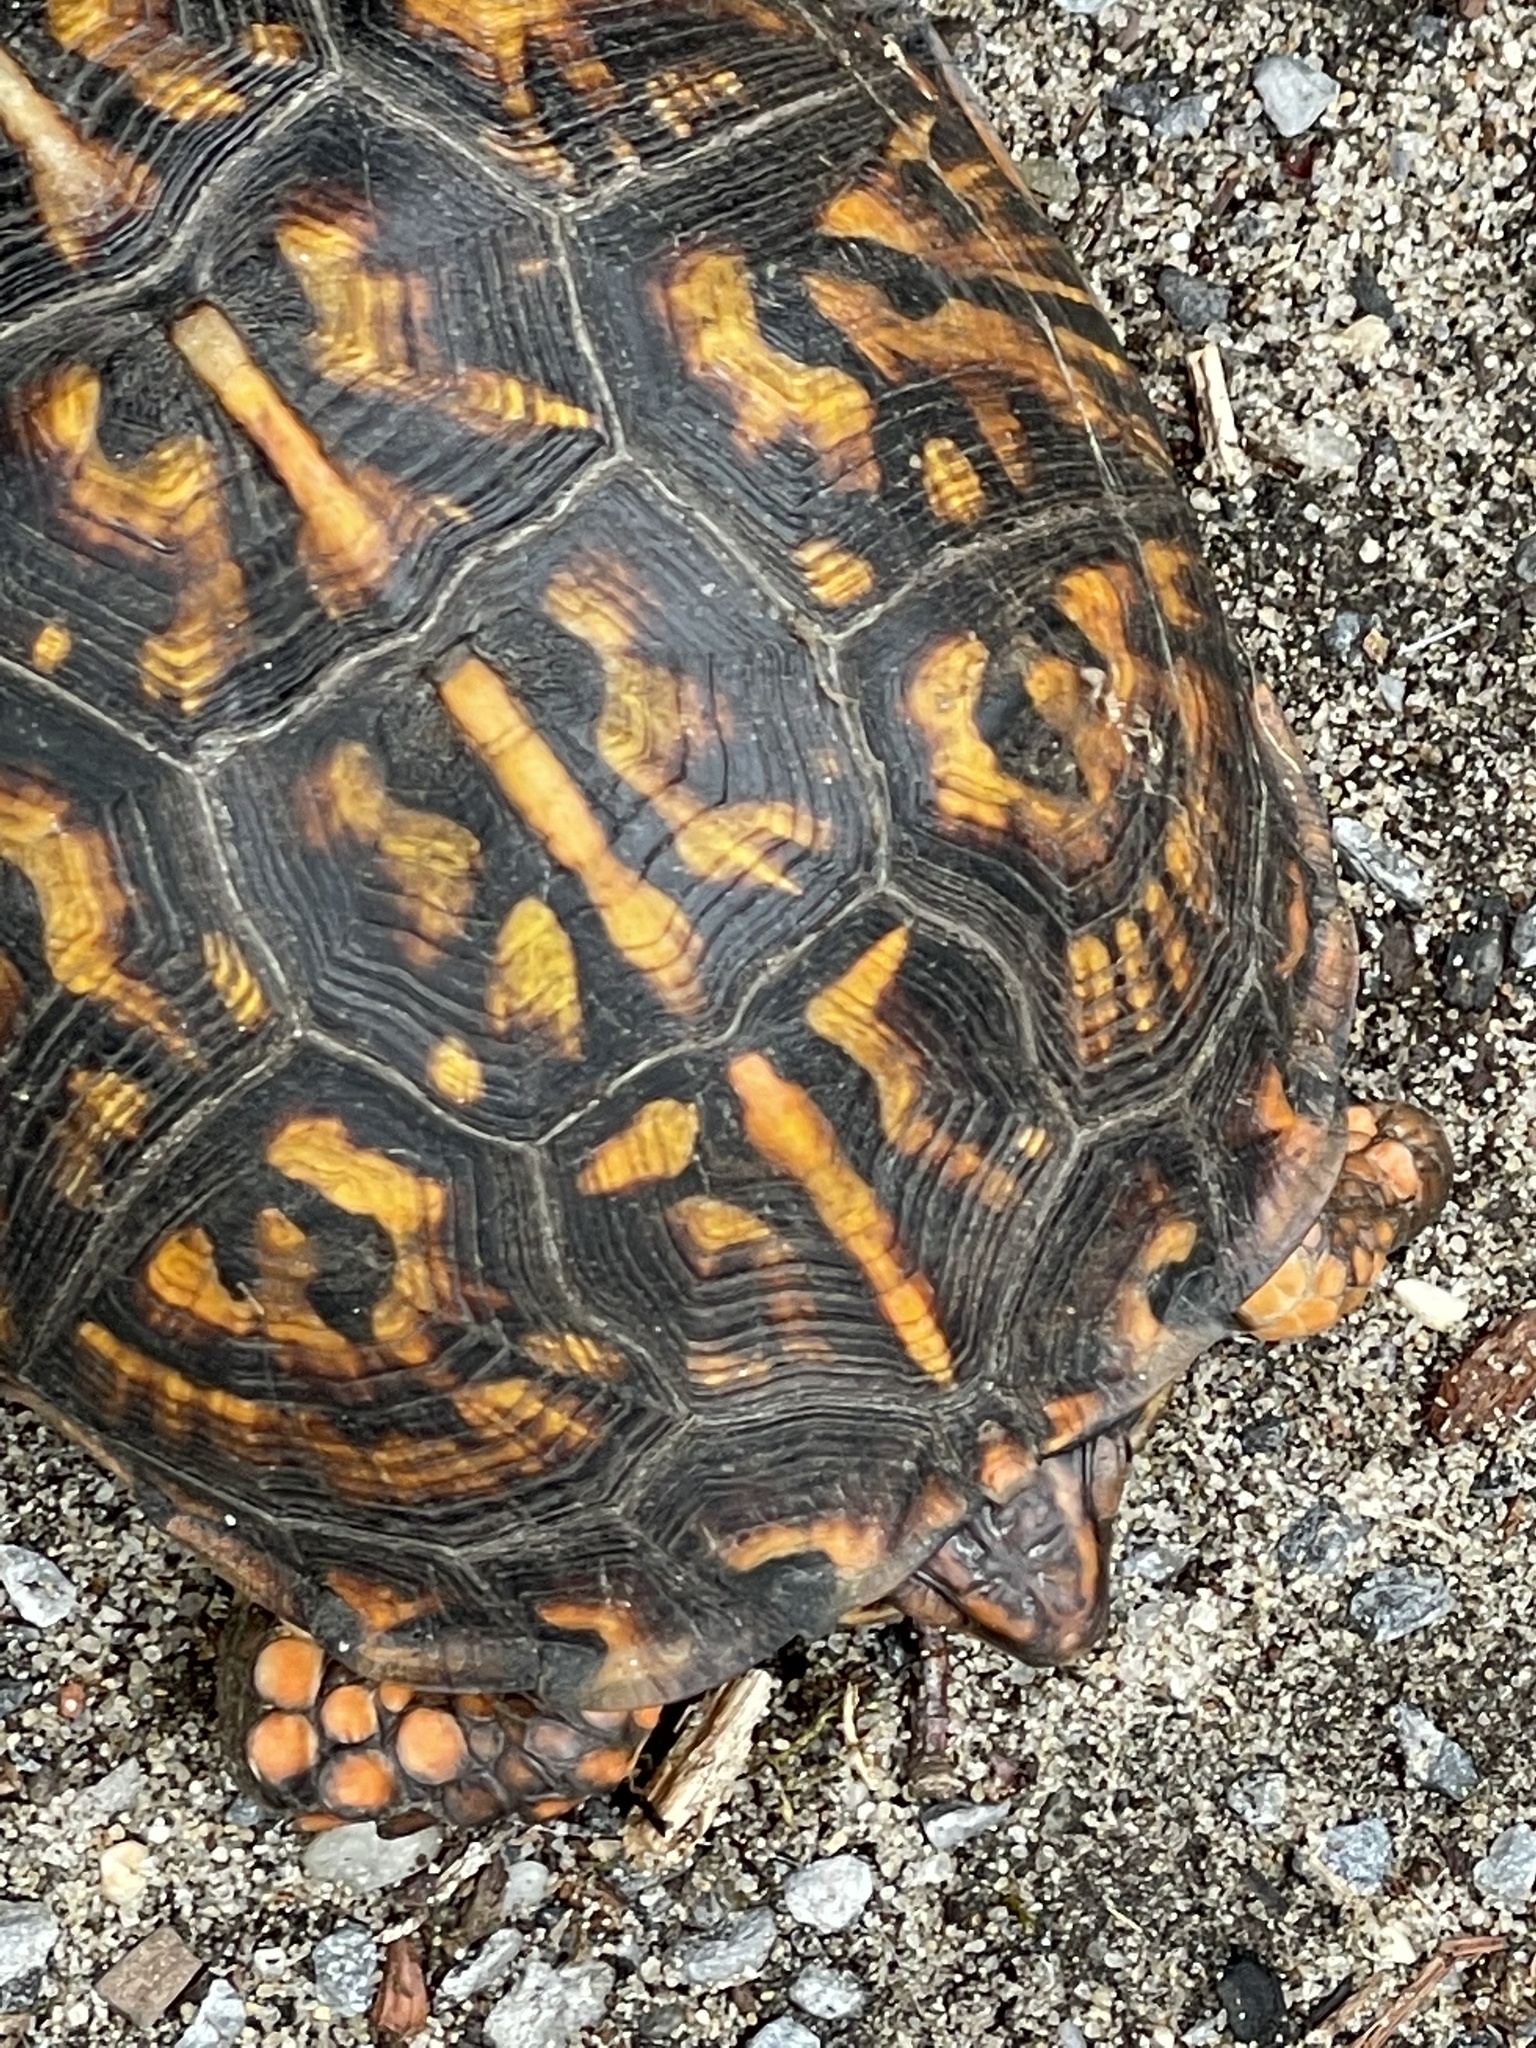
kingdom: Animalia
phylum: Chordata
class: Testudines
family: Emydidae
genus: Terrapene
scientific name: Terrapene carolina
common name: Common box turtle
